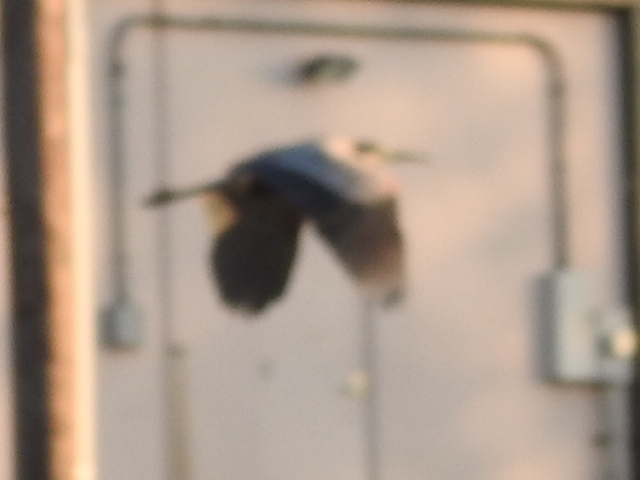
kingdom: Animalia
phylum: Chordata
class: Aves
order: Pelecaniformes
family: Ardeidae
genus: Ardea
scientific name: Ardea herodias
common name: Great blue heron
